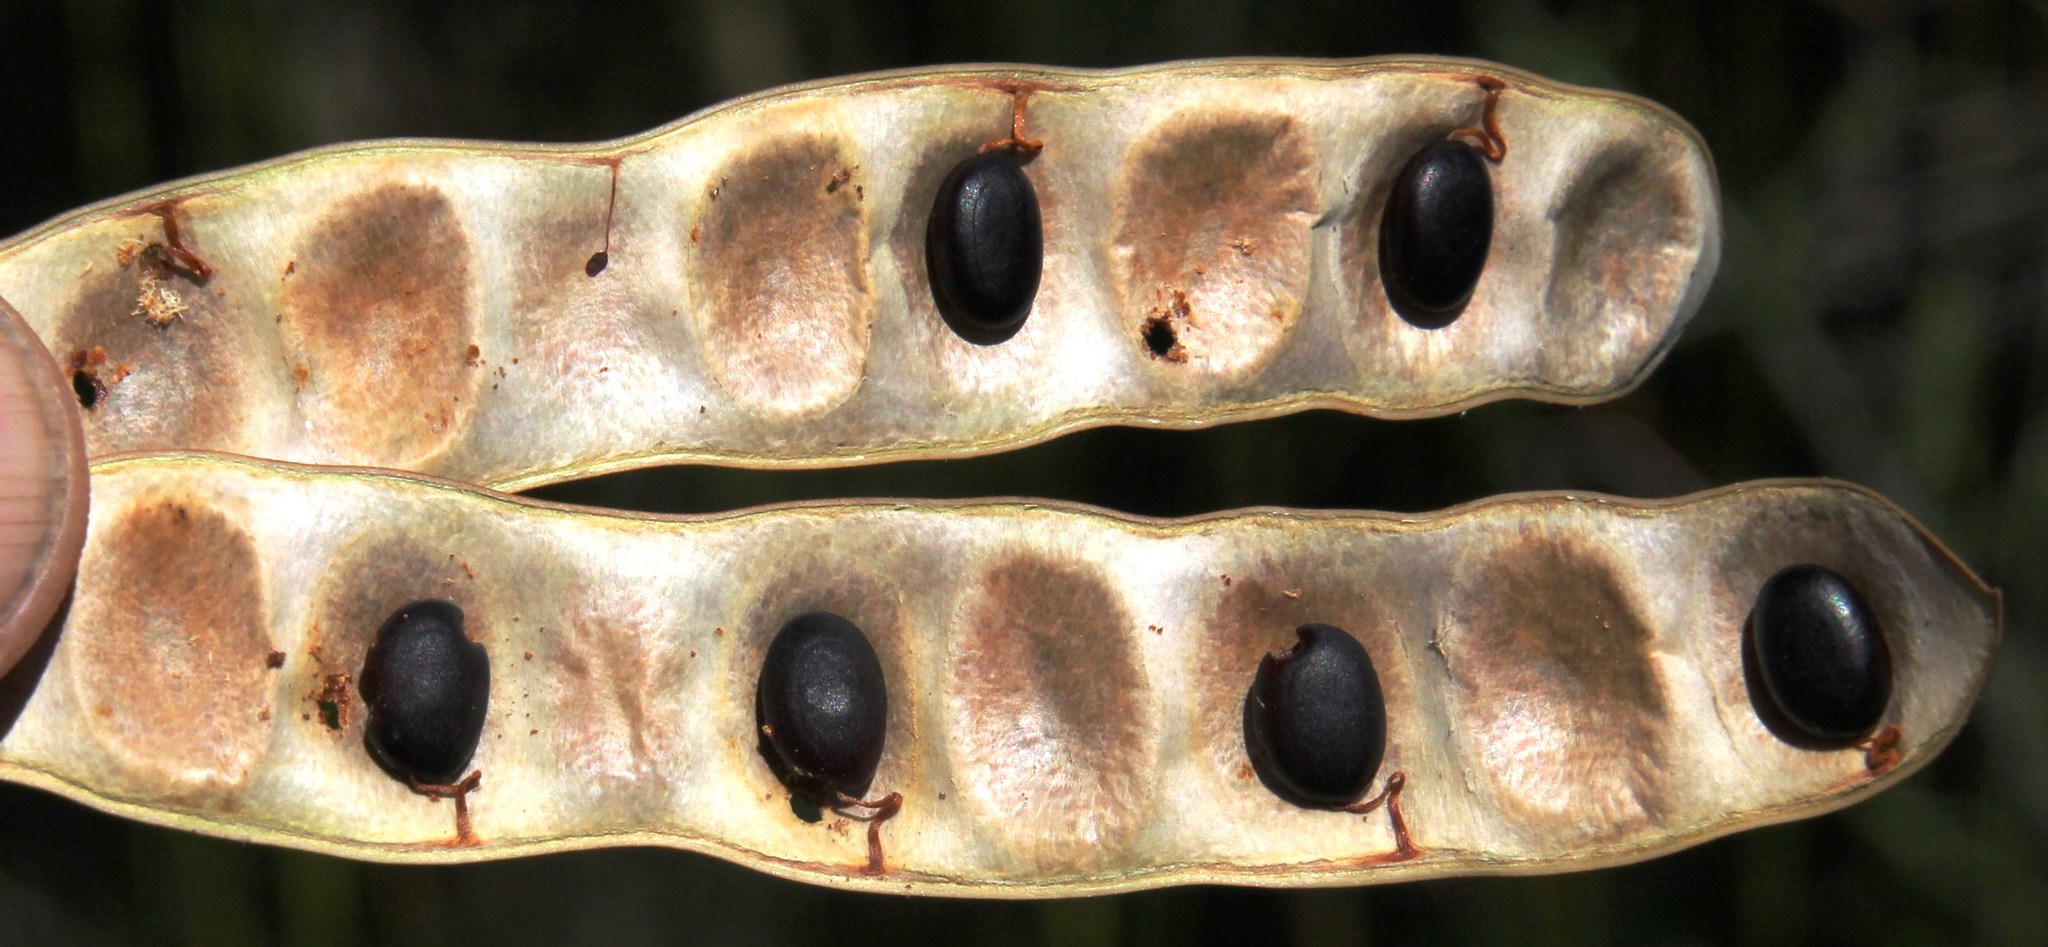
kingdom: Plantae
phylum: Tracheophyta
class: Magnoliopsida
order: Fabales
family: Fabaceae
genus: Paraserianthes
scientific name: Paraserianthes lophantha
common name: Plume albizia
